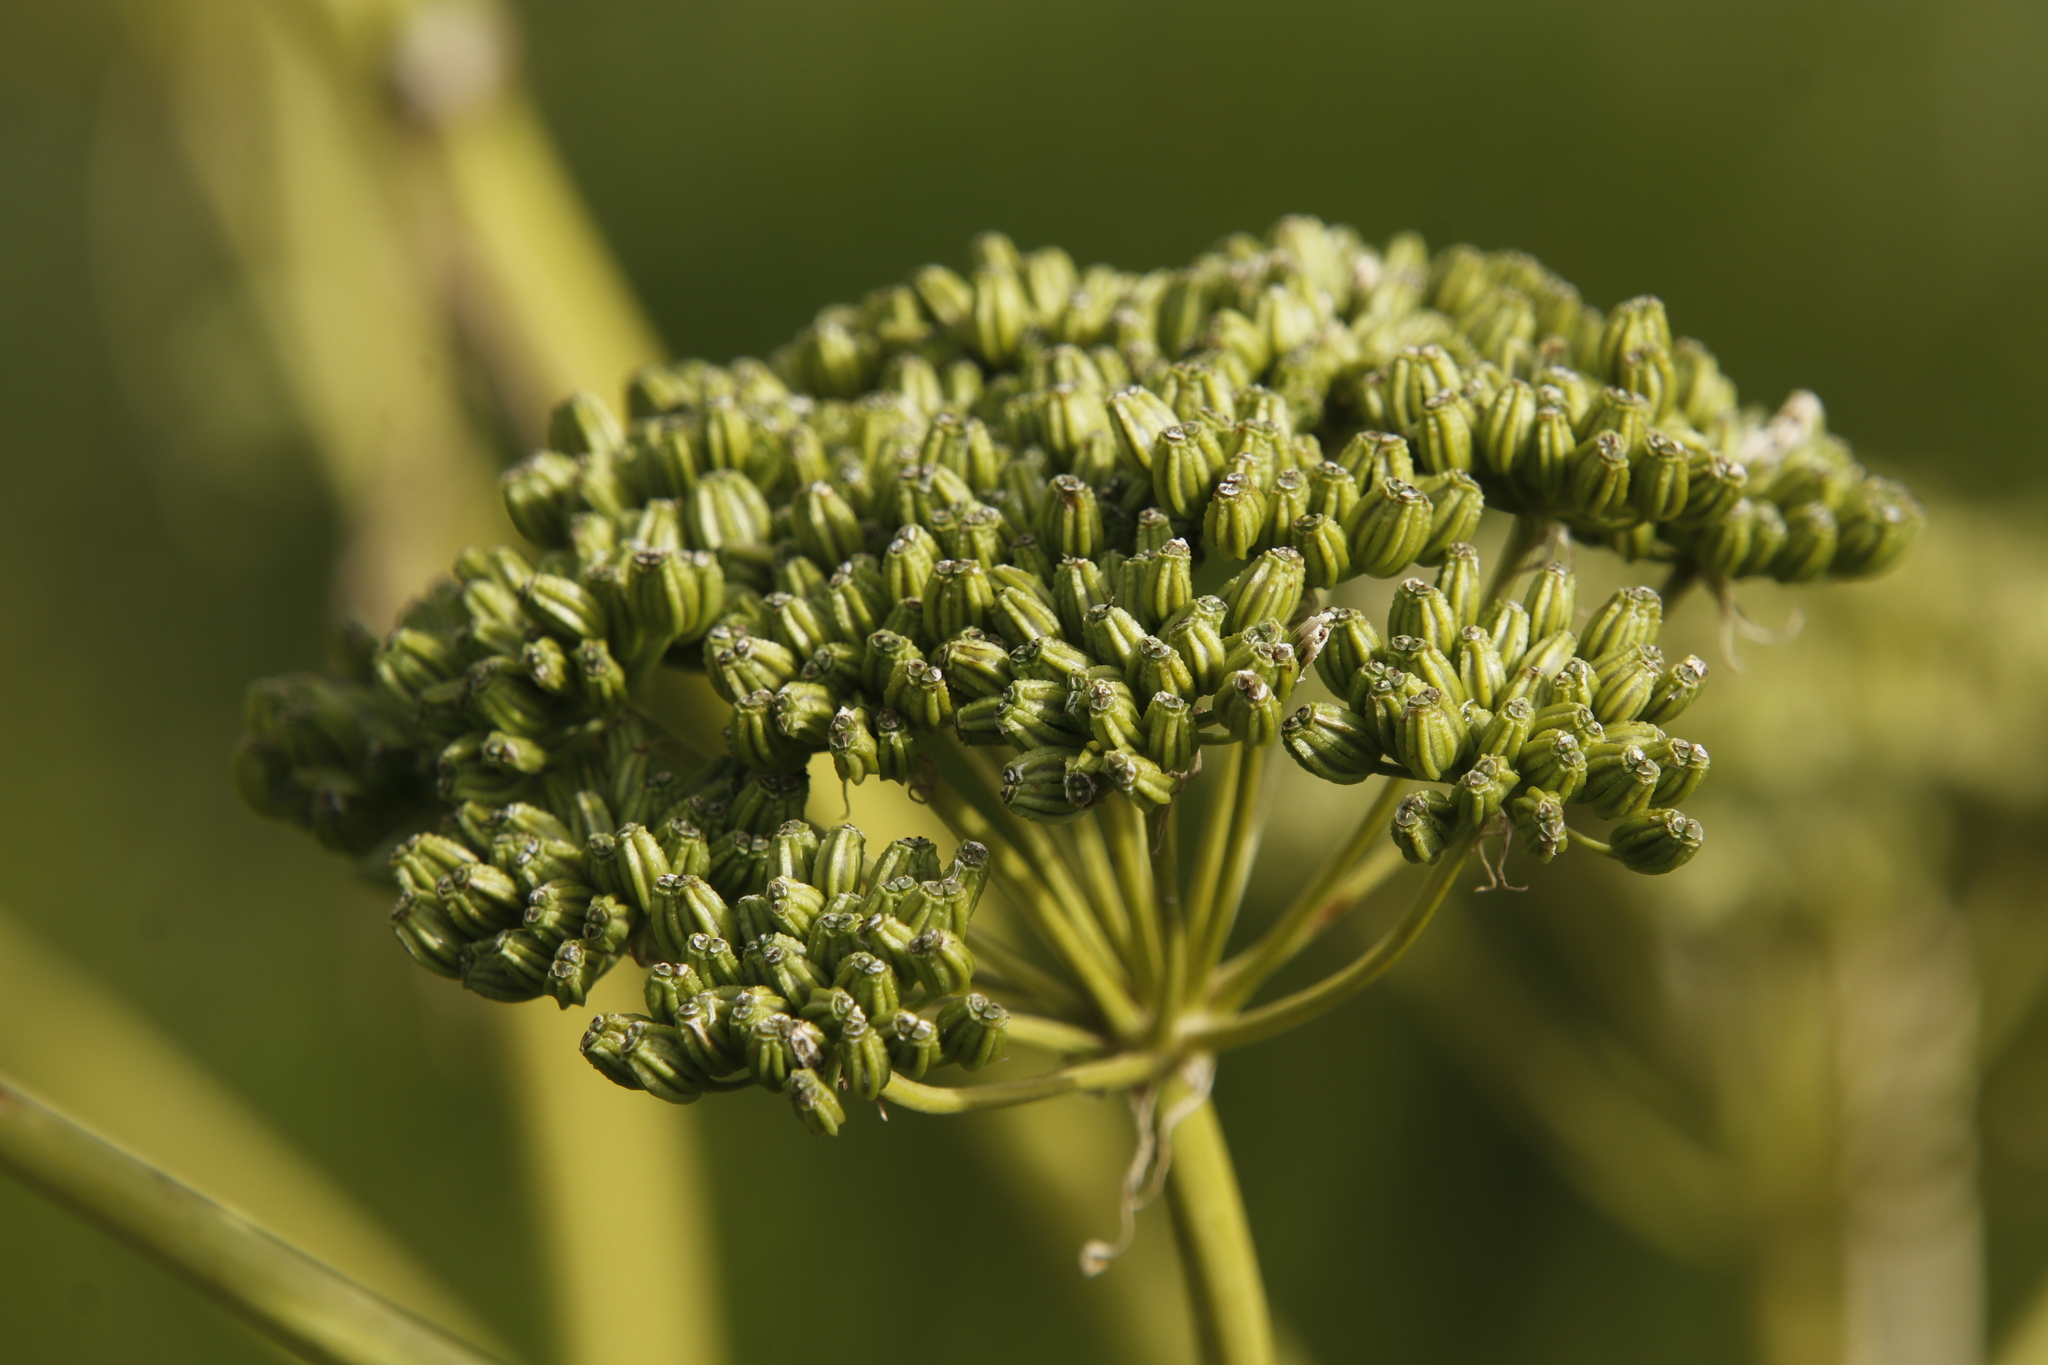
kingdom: Plantae
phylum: Tracheophyta
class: Magnoliopsida
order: Apiales
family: Apiaceae
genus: Conium
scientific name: Conium fontanum
